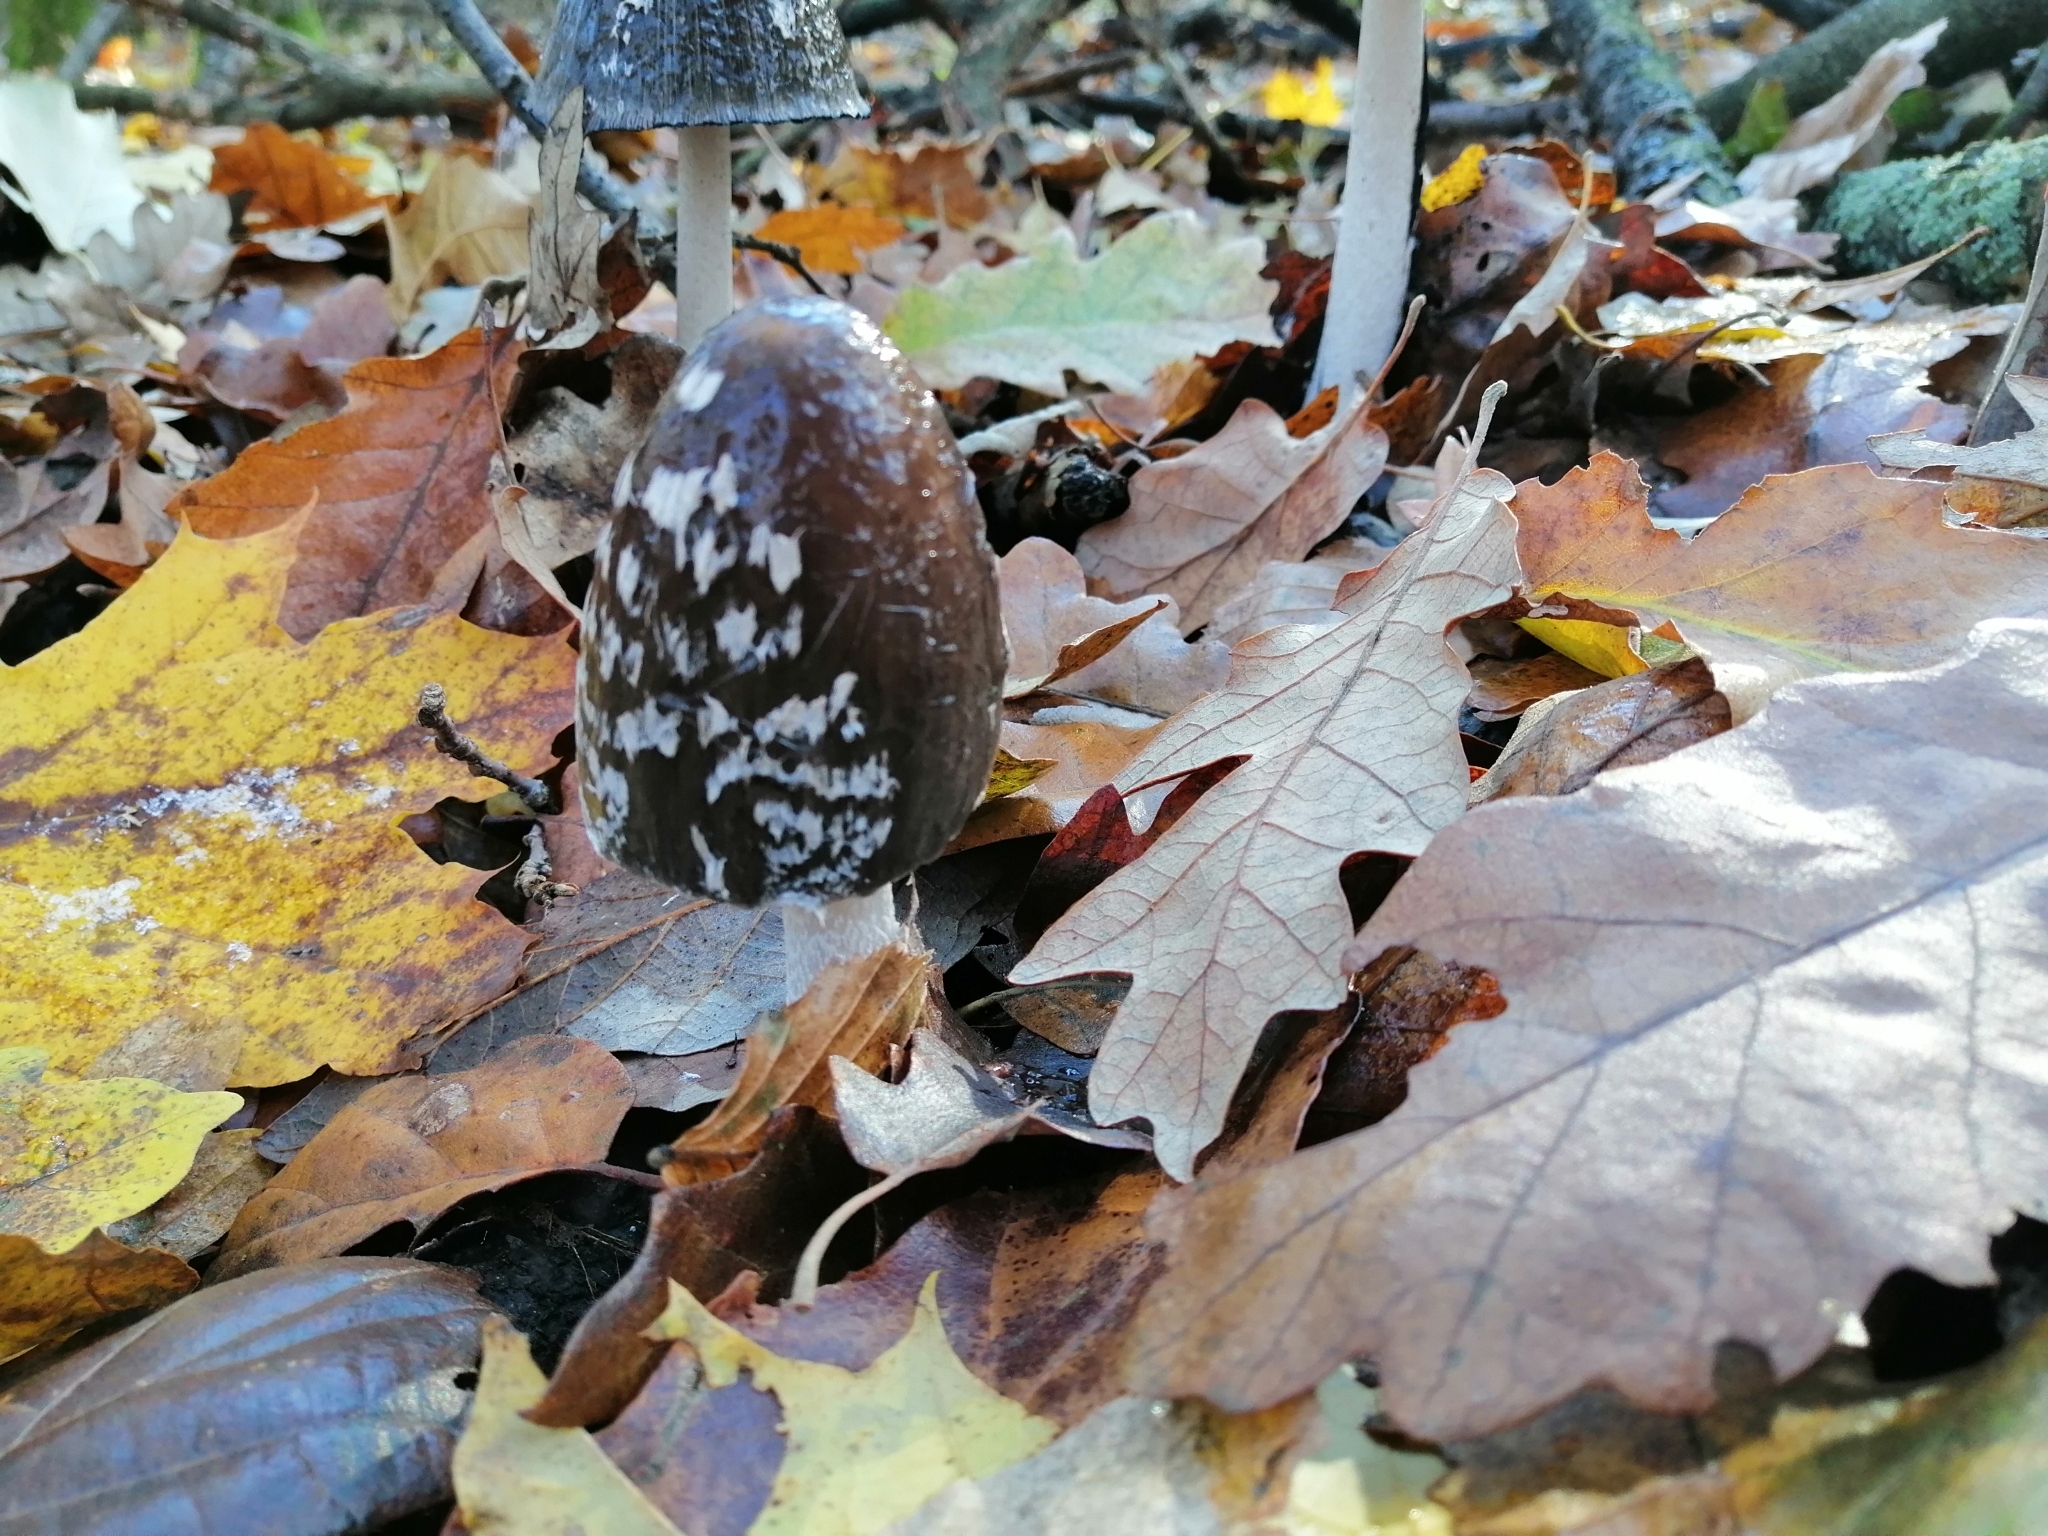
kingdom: Fungi
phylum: Basidiomycota
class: Agaricomycetes
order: Agaricales
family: Psathyrellaceae
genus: Coprinopsis
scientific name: Coprinopsis picacea
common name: Magpie inkcap
